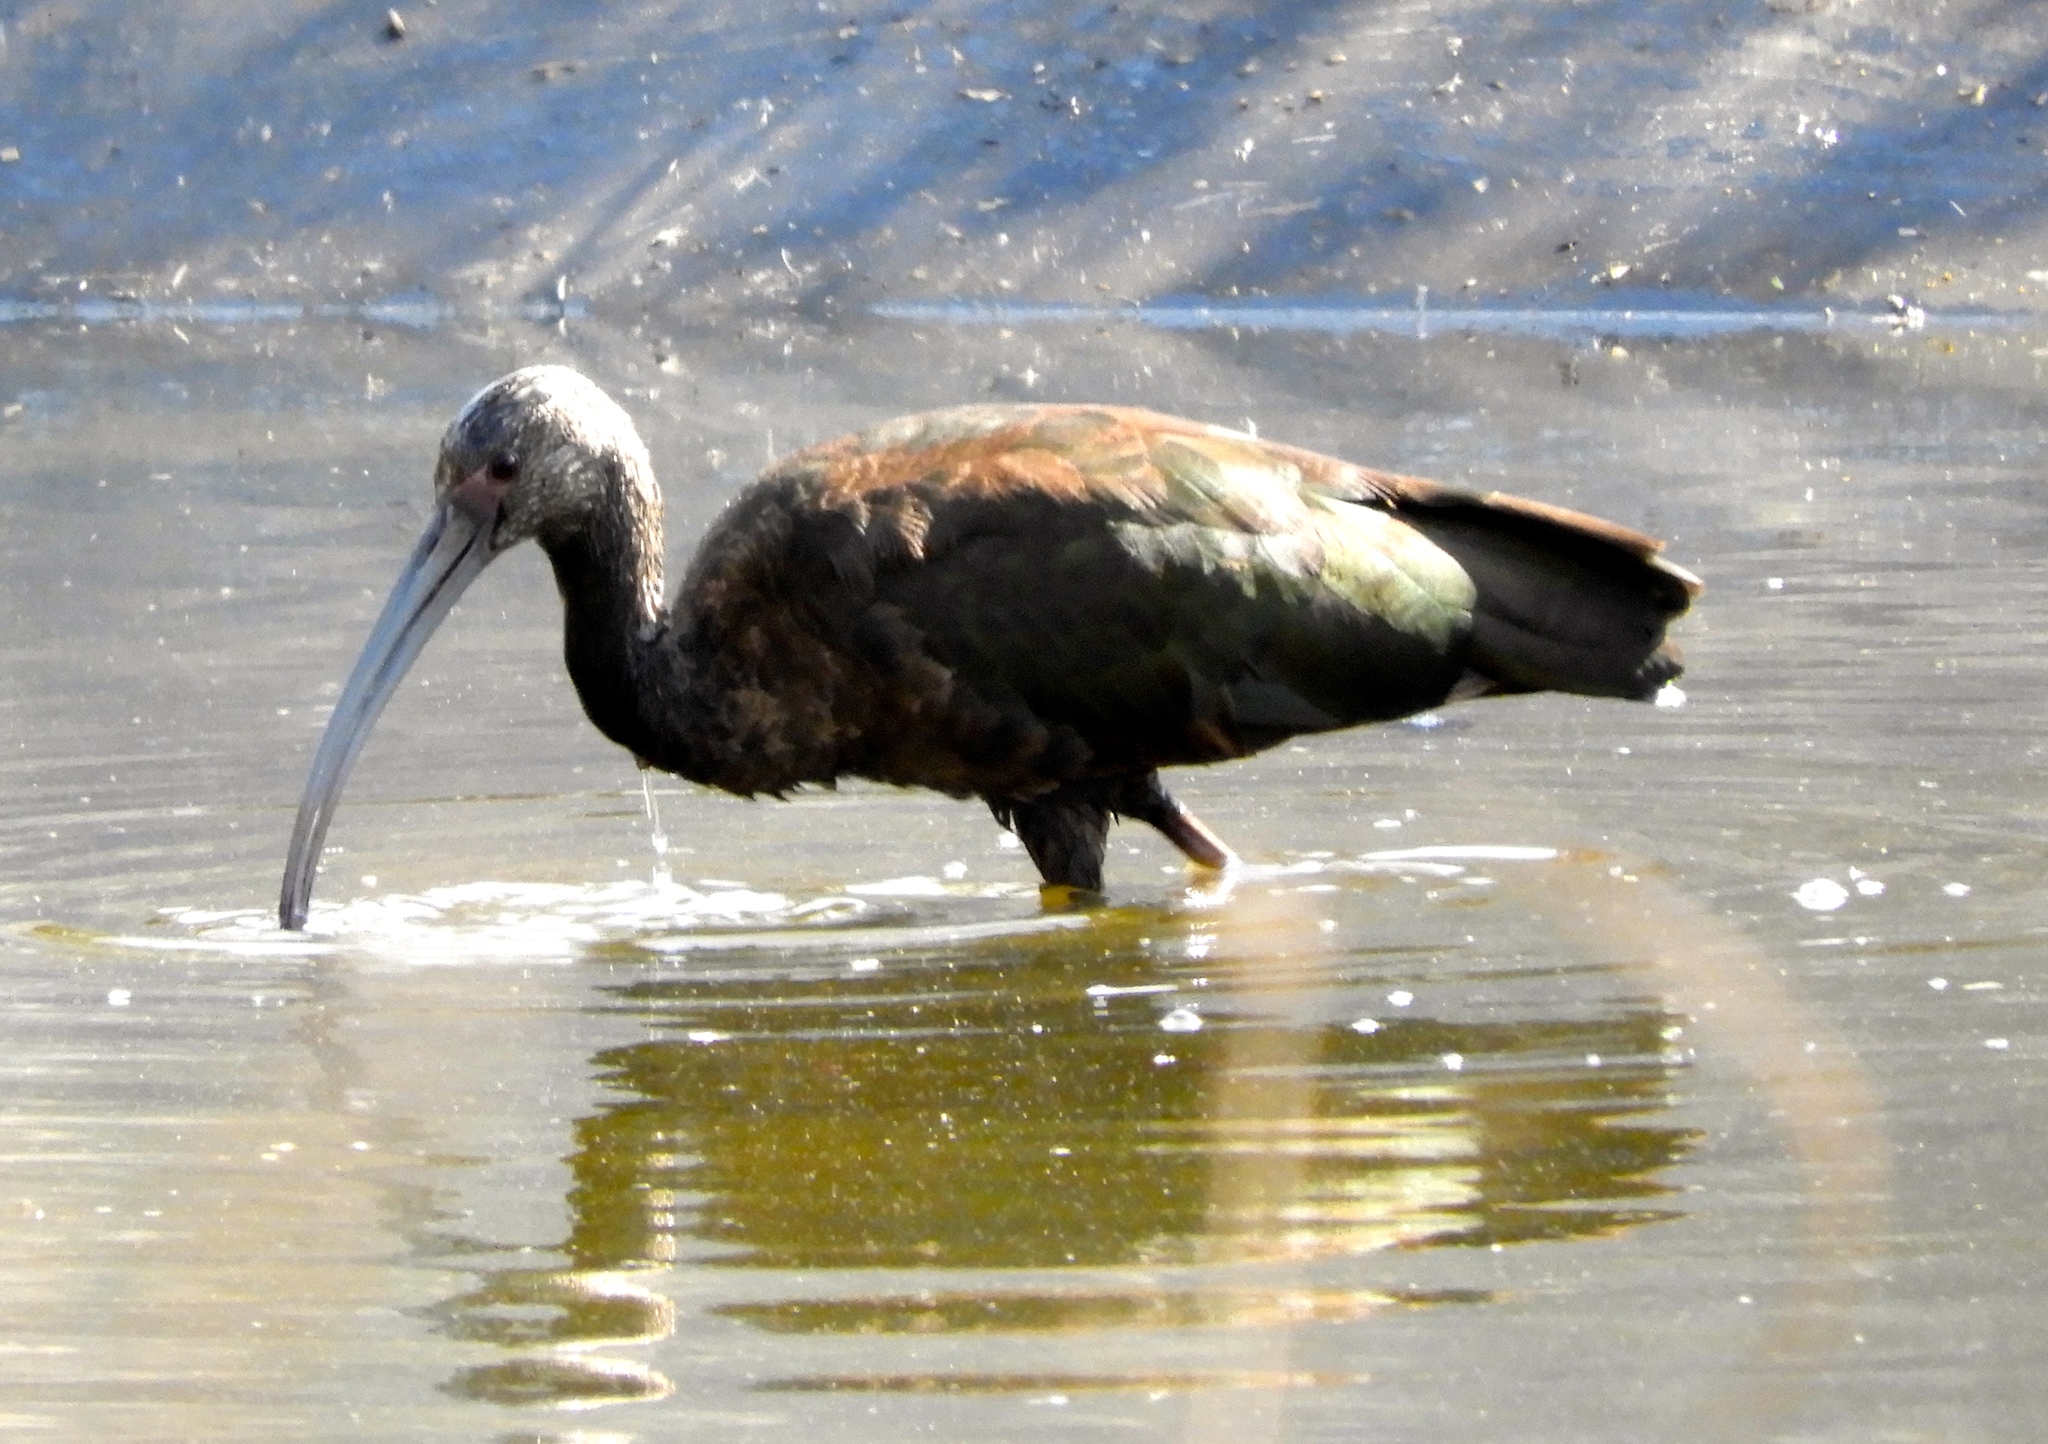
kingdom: Animalia
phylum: Chordata
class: Aves
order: Pelecaniformes
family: Threskiornithidae
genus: Plegadis
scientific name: Plegadis chihi
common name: White-faced ibis
